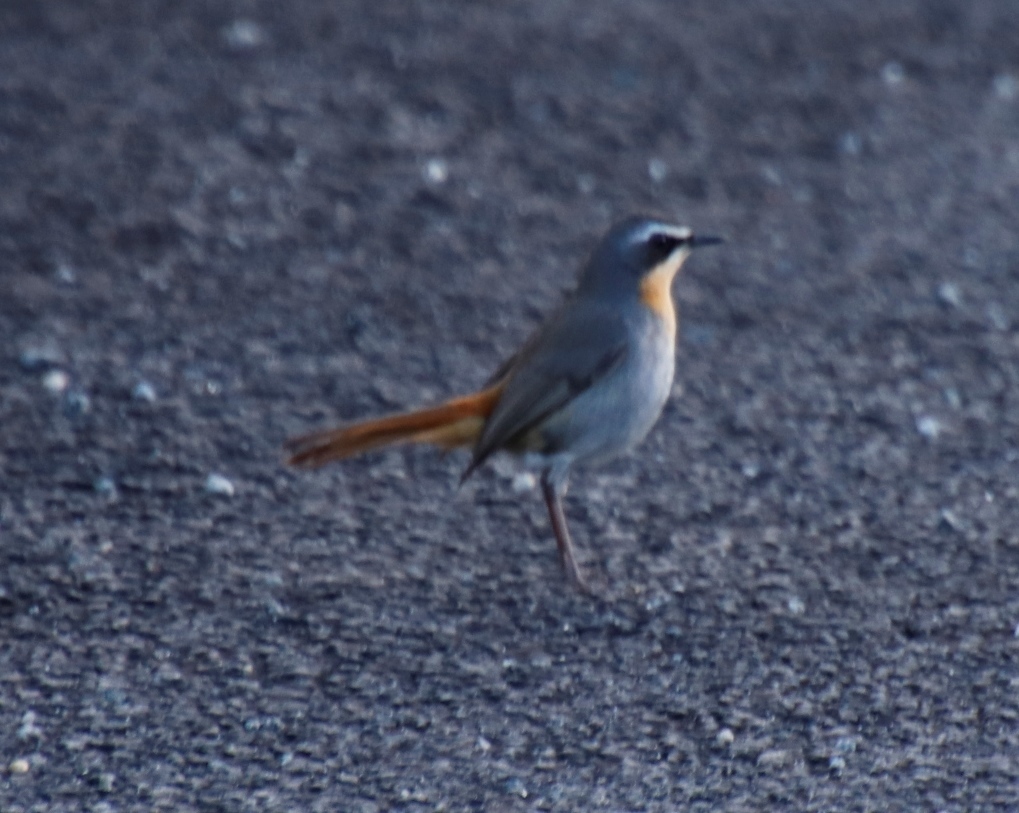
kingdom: Animalia
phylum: Chordata
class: Aves
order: Passeriformes
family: Muscicapidae
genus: Cossypha
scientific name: Cossypha caffra
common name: Cape robin-chat
